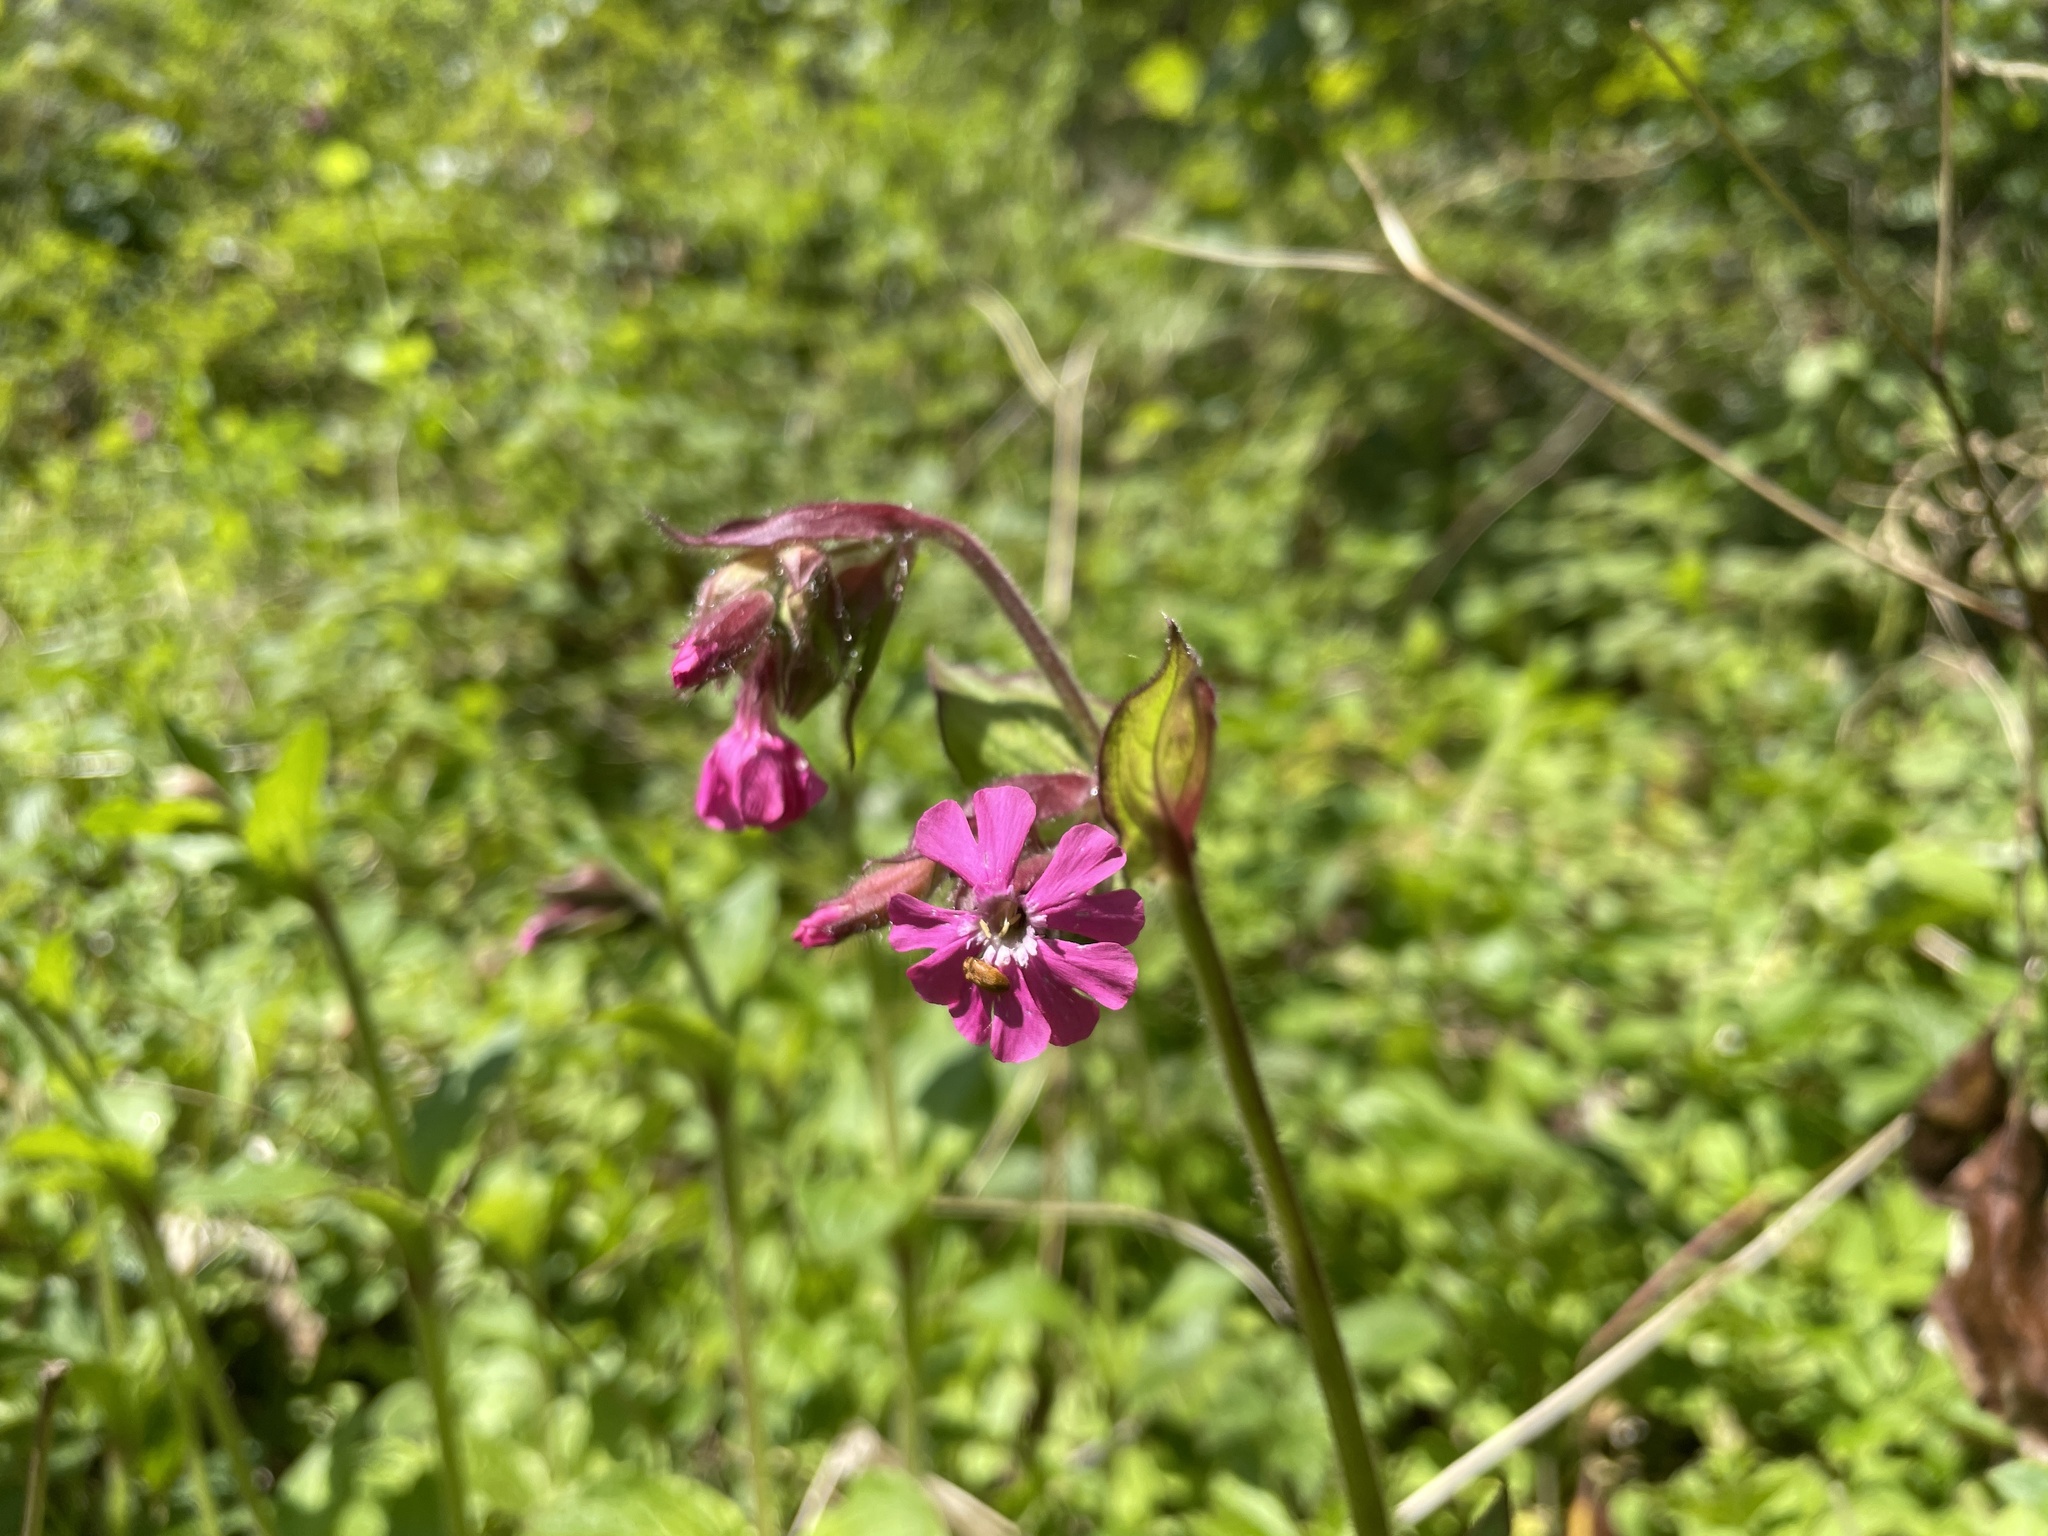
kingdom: Plantae
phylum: Tracheophyta
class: Magnoliopsida
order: Caryophyllales
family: Caryophyllaceae
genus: Silene
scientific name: Silene dioica
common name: Red campion
